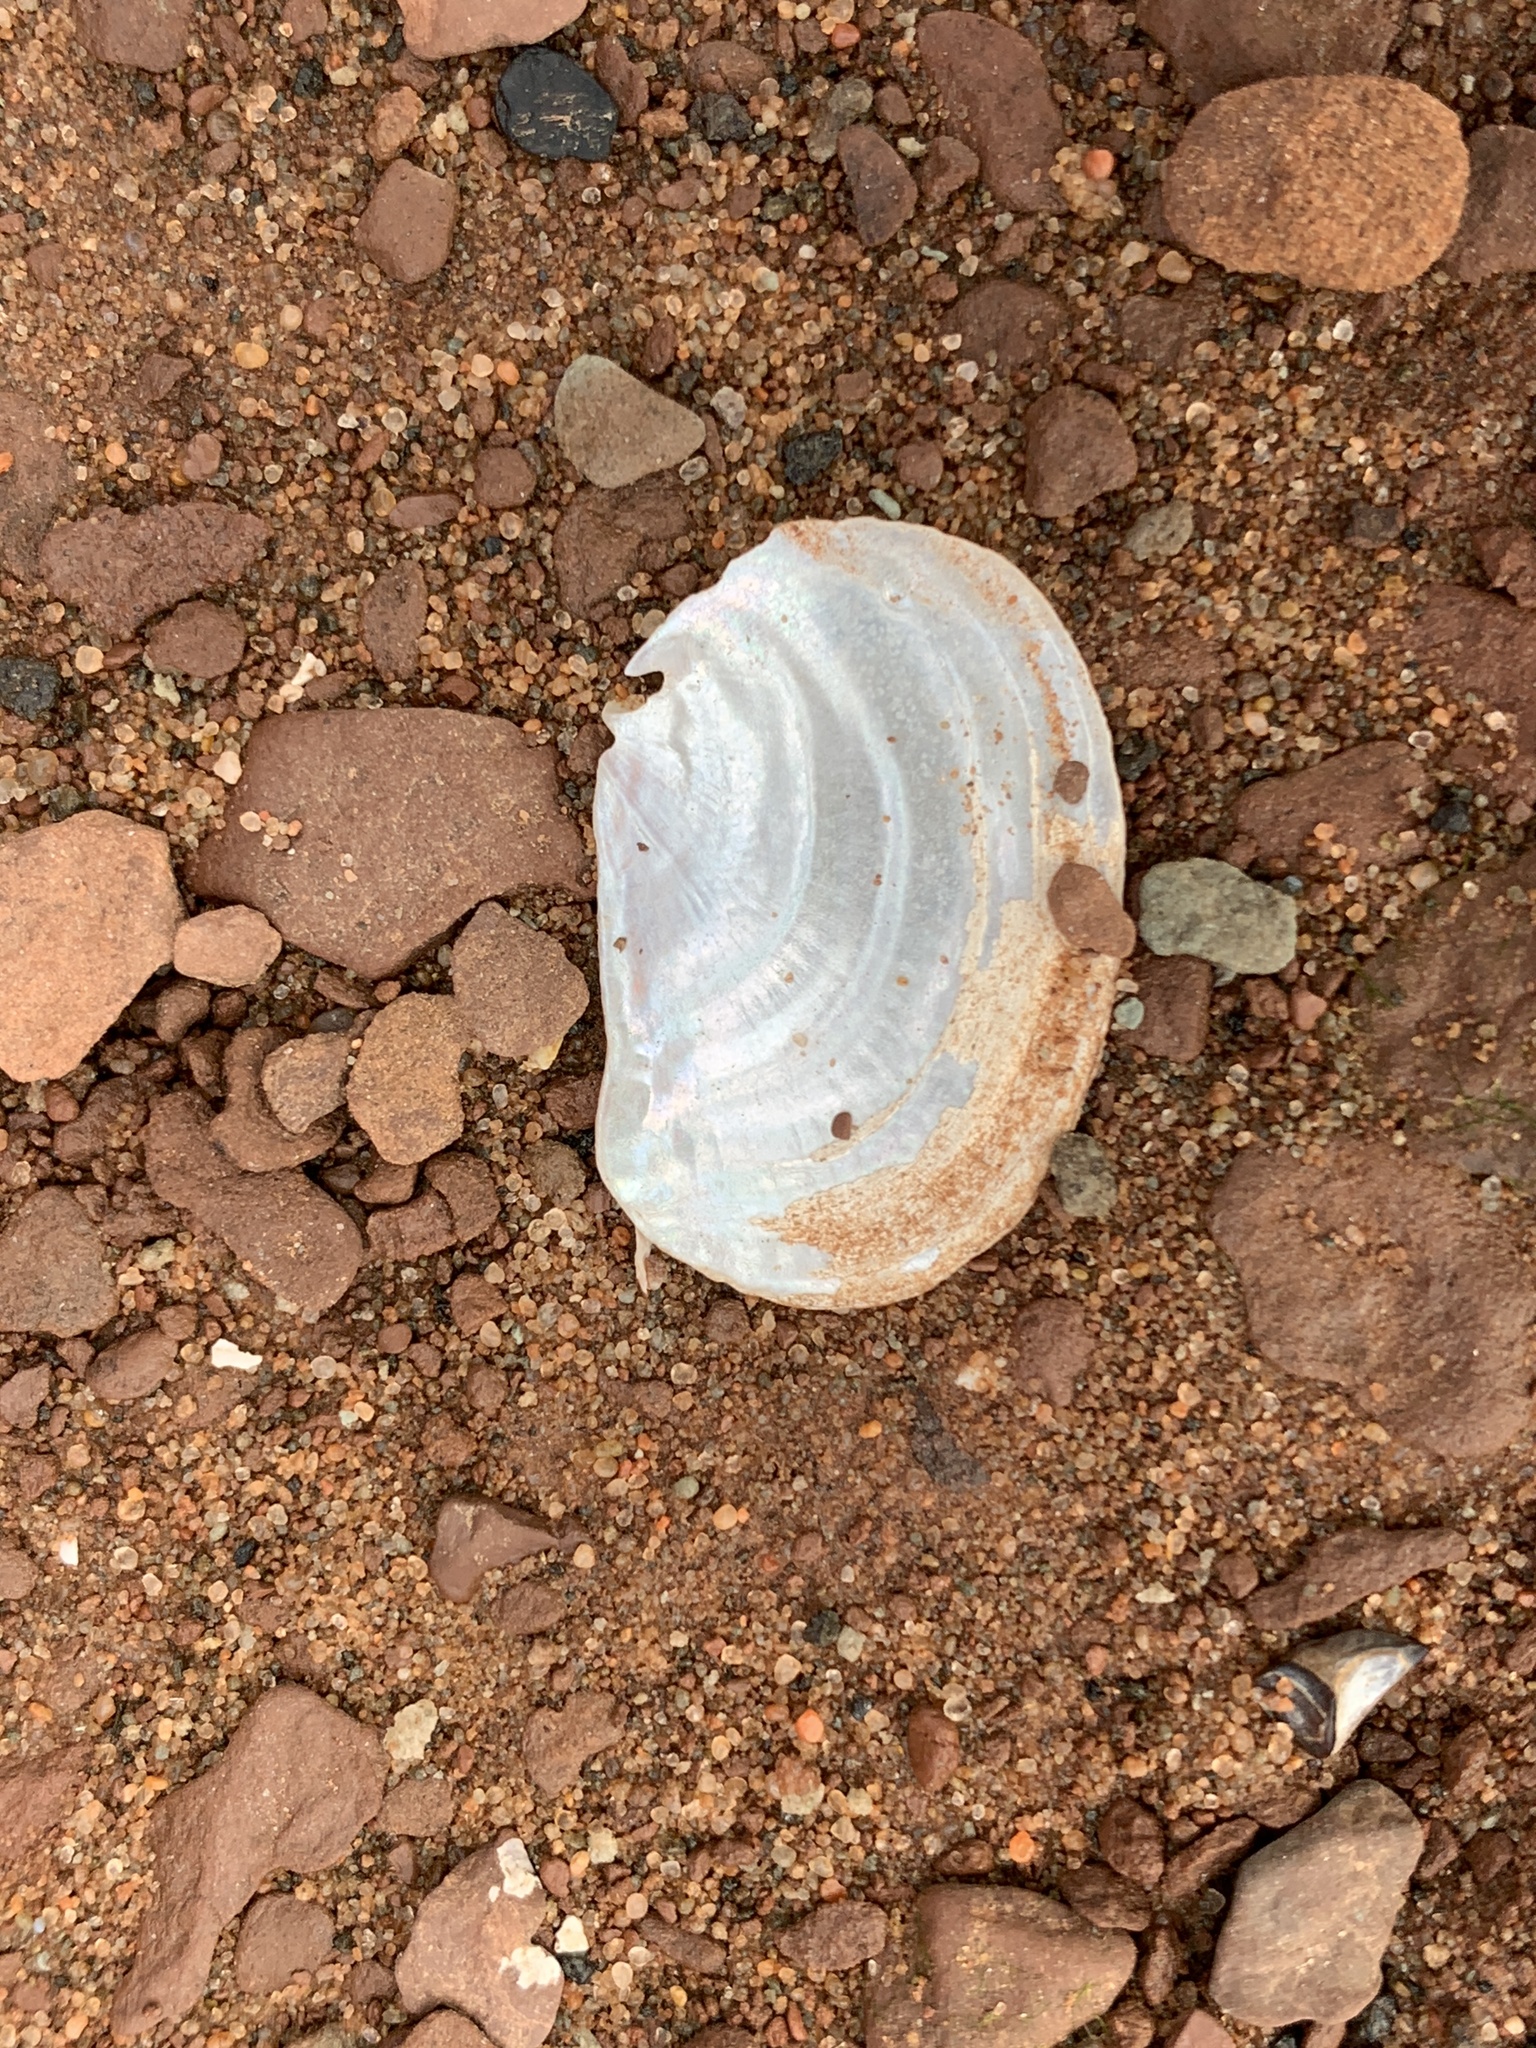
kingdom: Animalia
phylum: Mollusca
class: Bivalvia
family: Pandoridae
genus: Pandora
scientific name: Pandora gouldiana
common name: Rounded pandora
